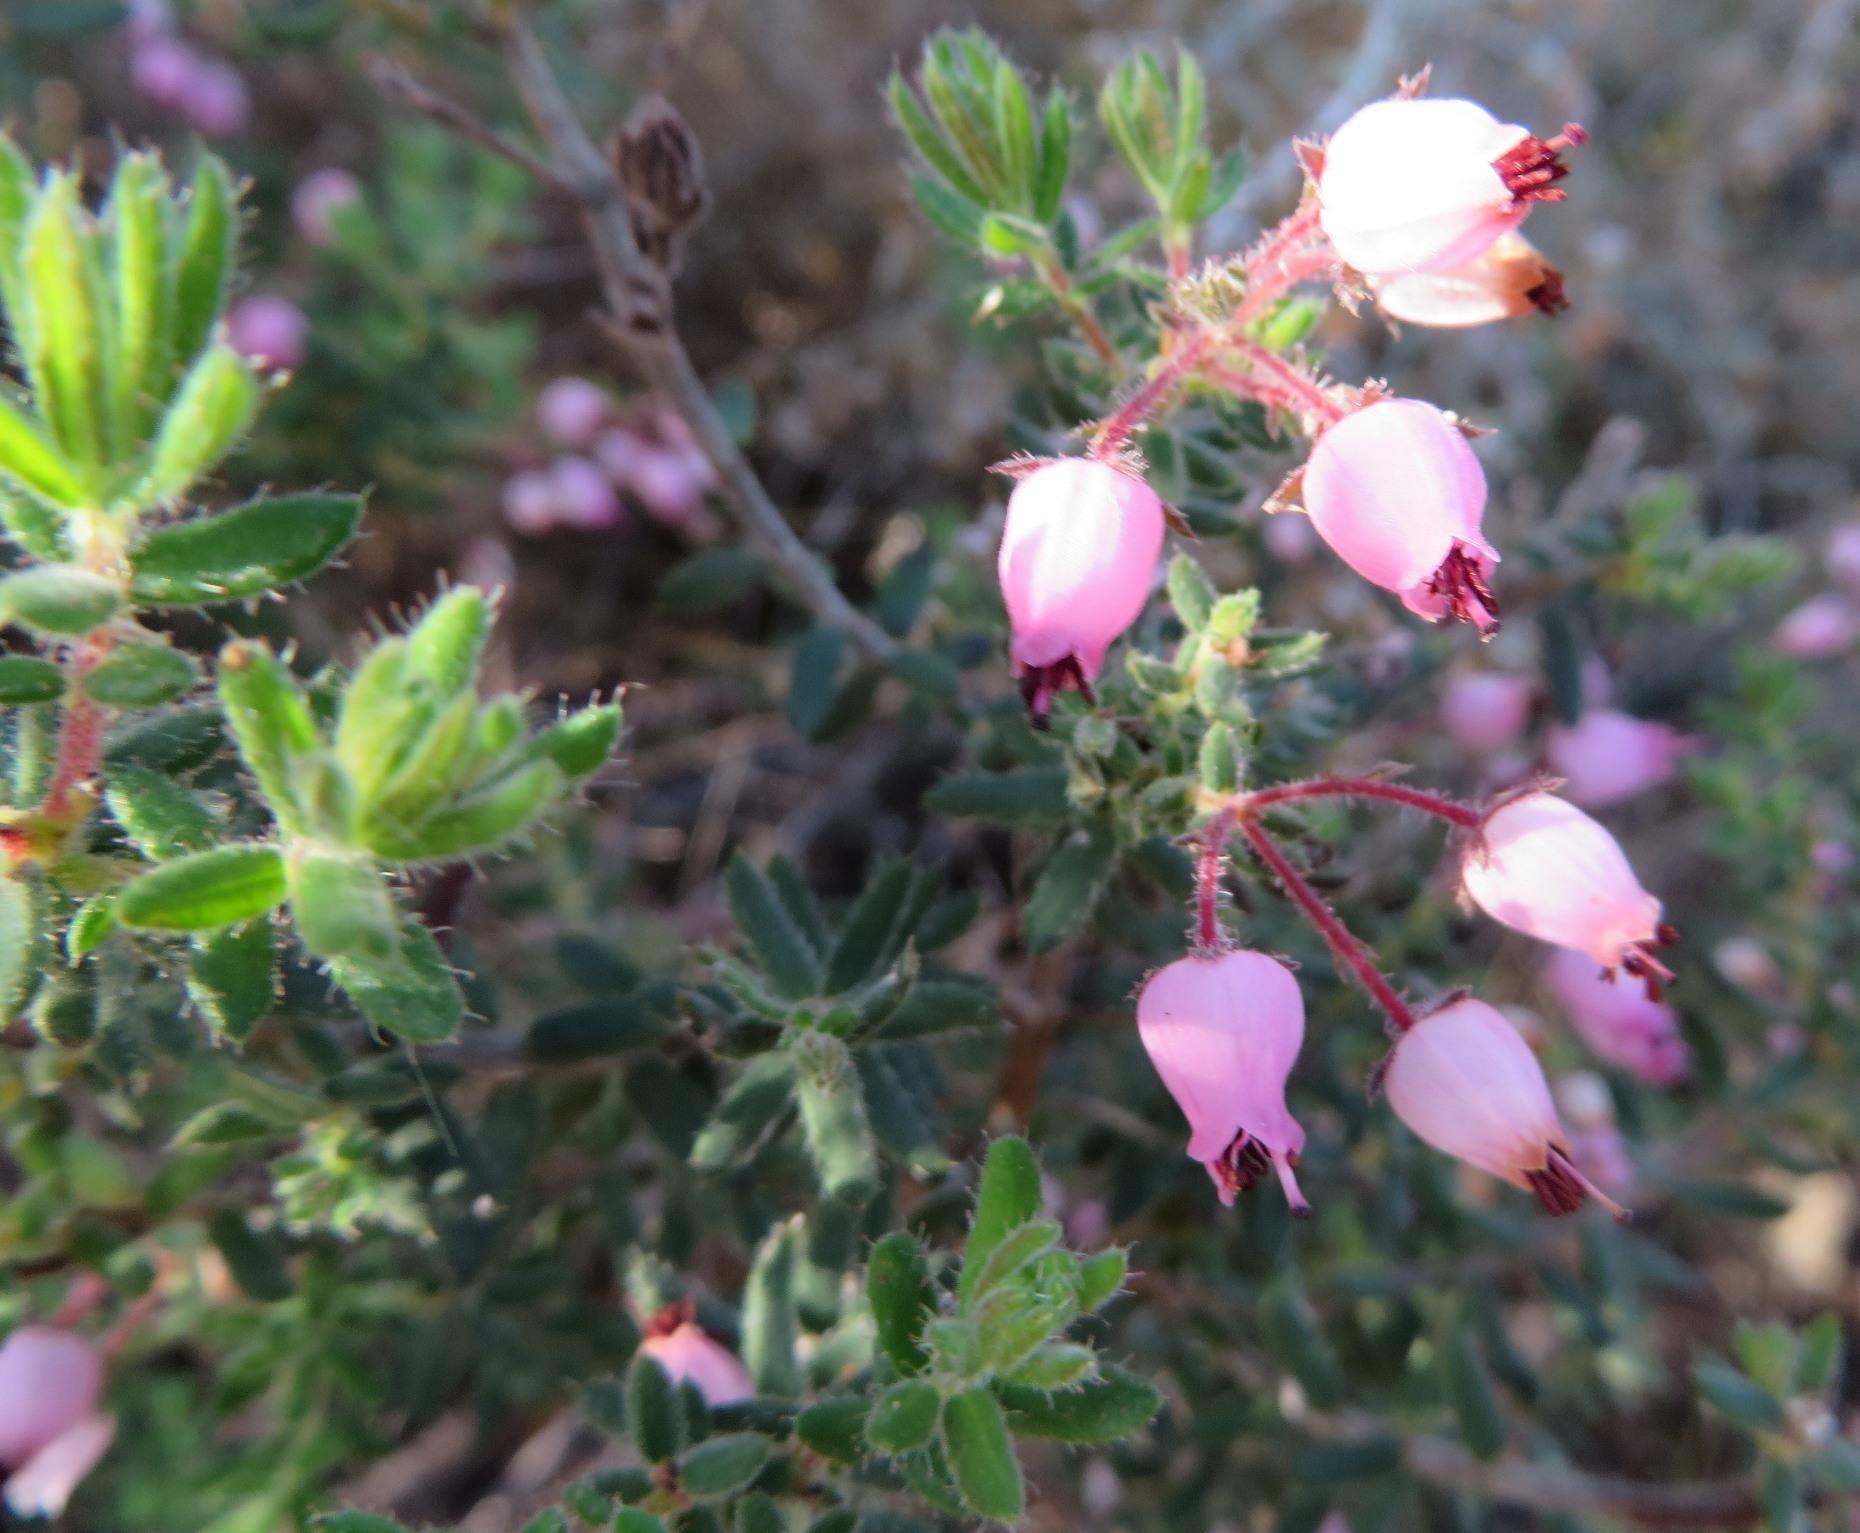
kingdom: Plantae
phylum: Tracheophyta
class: Magnoliopsida
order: Ericales
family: Ericaceae
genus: Erica
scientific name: Erica hirta
